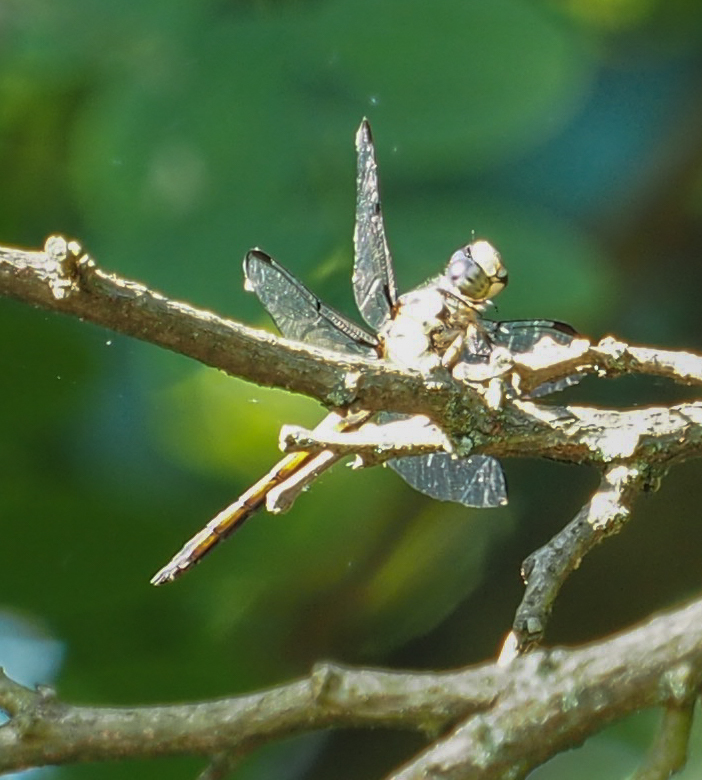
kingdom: Animalia
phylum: Arthropoda
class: Insecta
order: Odonata
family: Libellulidae
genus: Libellula
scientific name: Libellula vibrans
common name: Great blue skimmer
